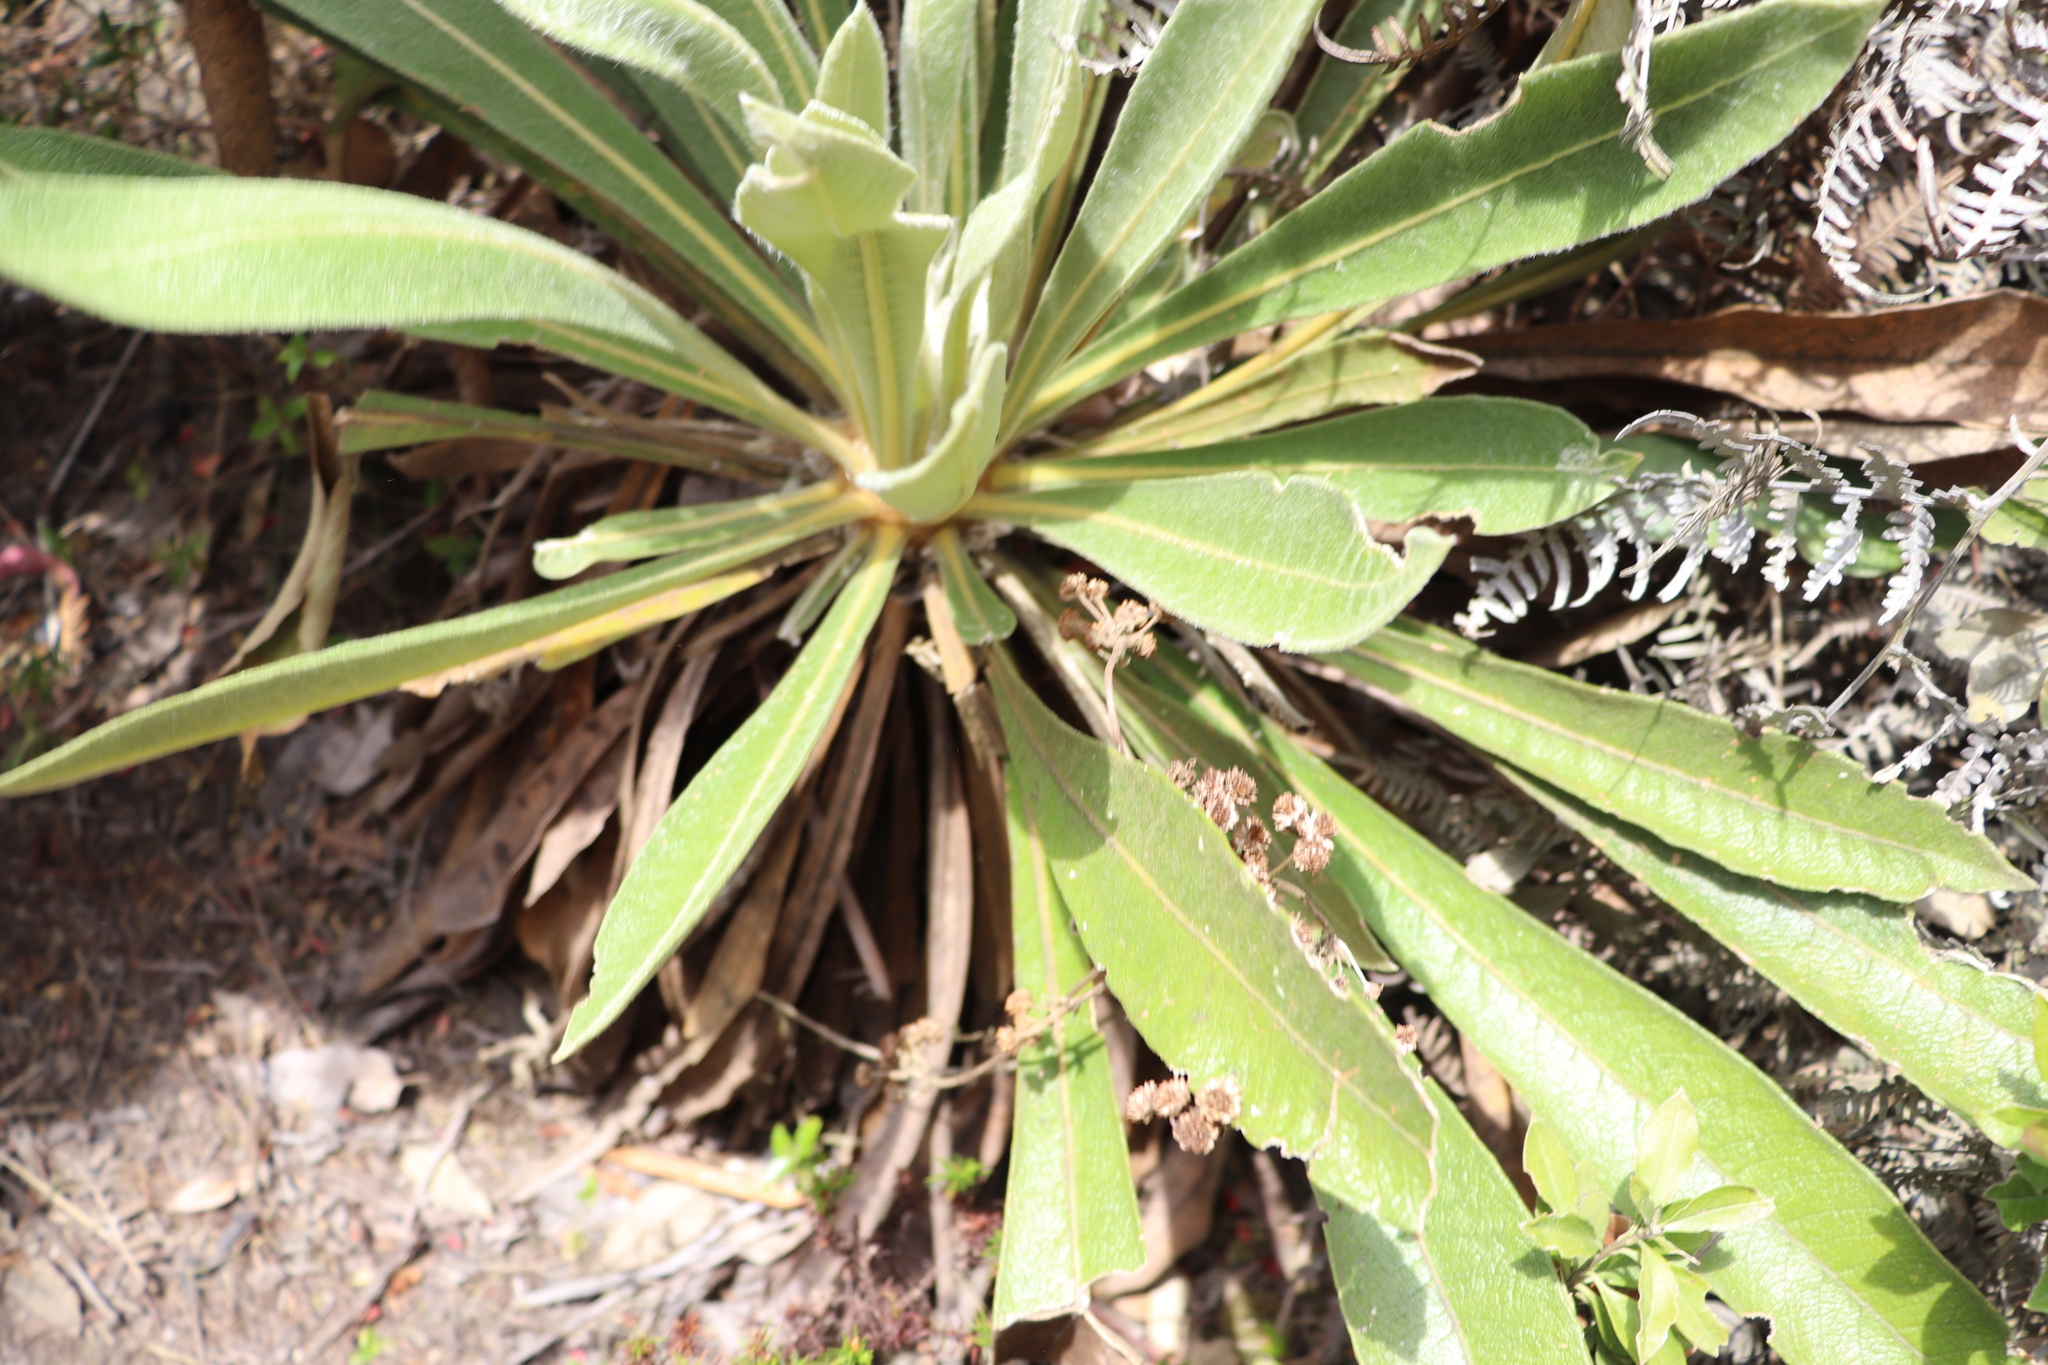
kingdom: Plantae
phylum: Tracheophyta
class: Magnoliopsida
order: Asterales
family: Asteraceae
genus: Espeletia
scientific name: Espeletia corymbosa
